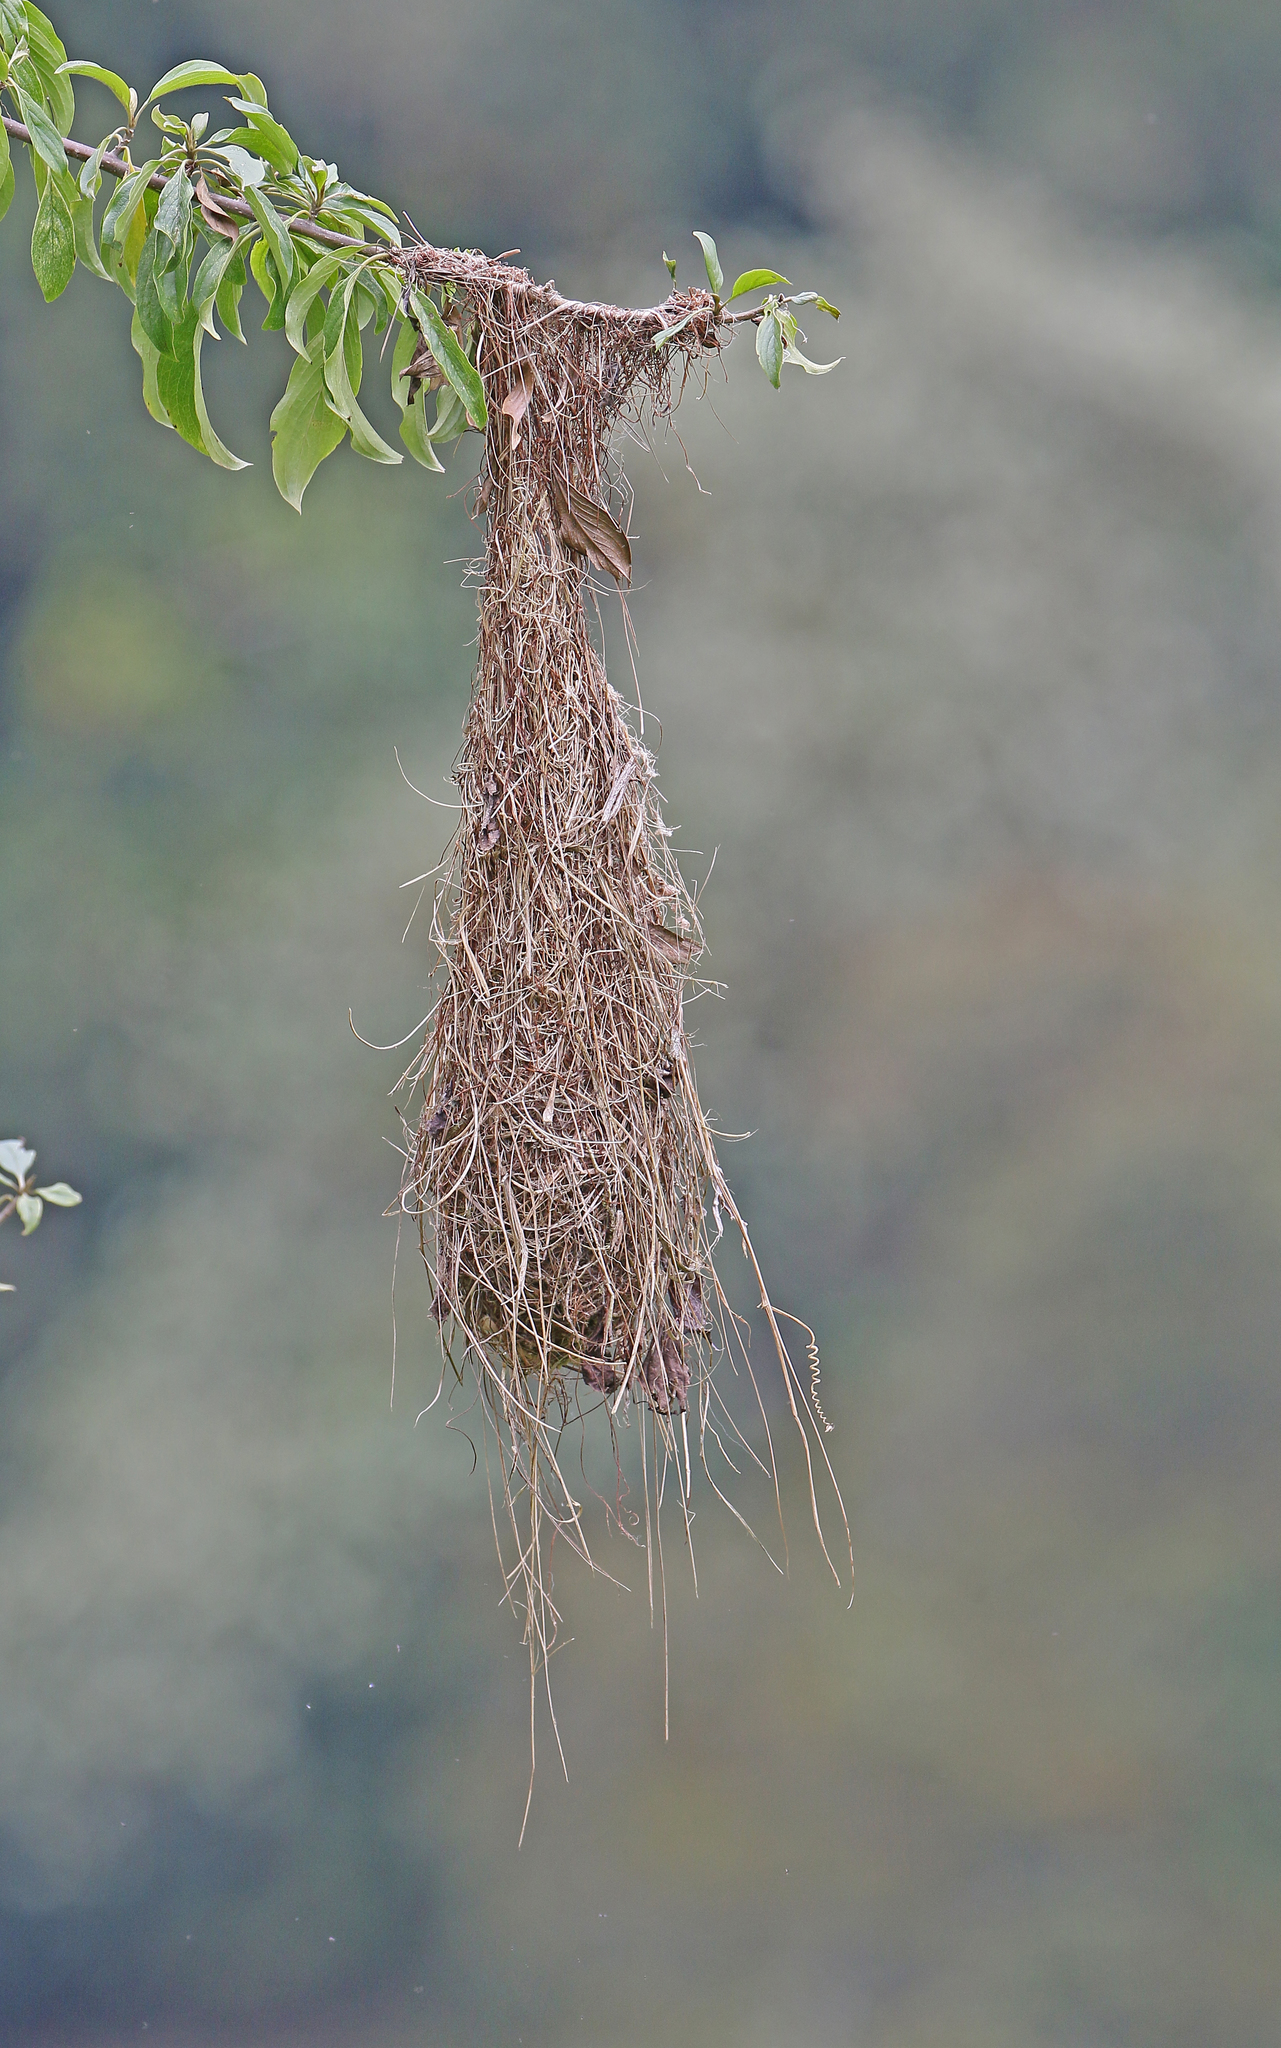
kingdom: Animalia
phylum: Chordata
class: Aves
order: Passeriformes
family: Icteridae
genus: Psarocolius
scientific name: Psarocolius angustifrons
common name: Russet-backed oropendola
